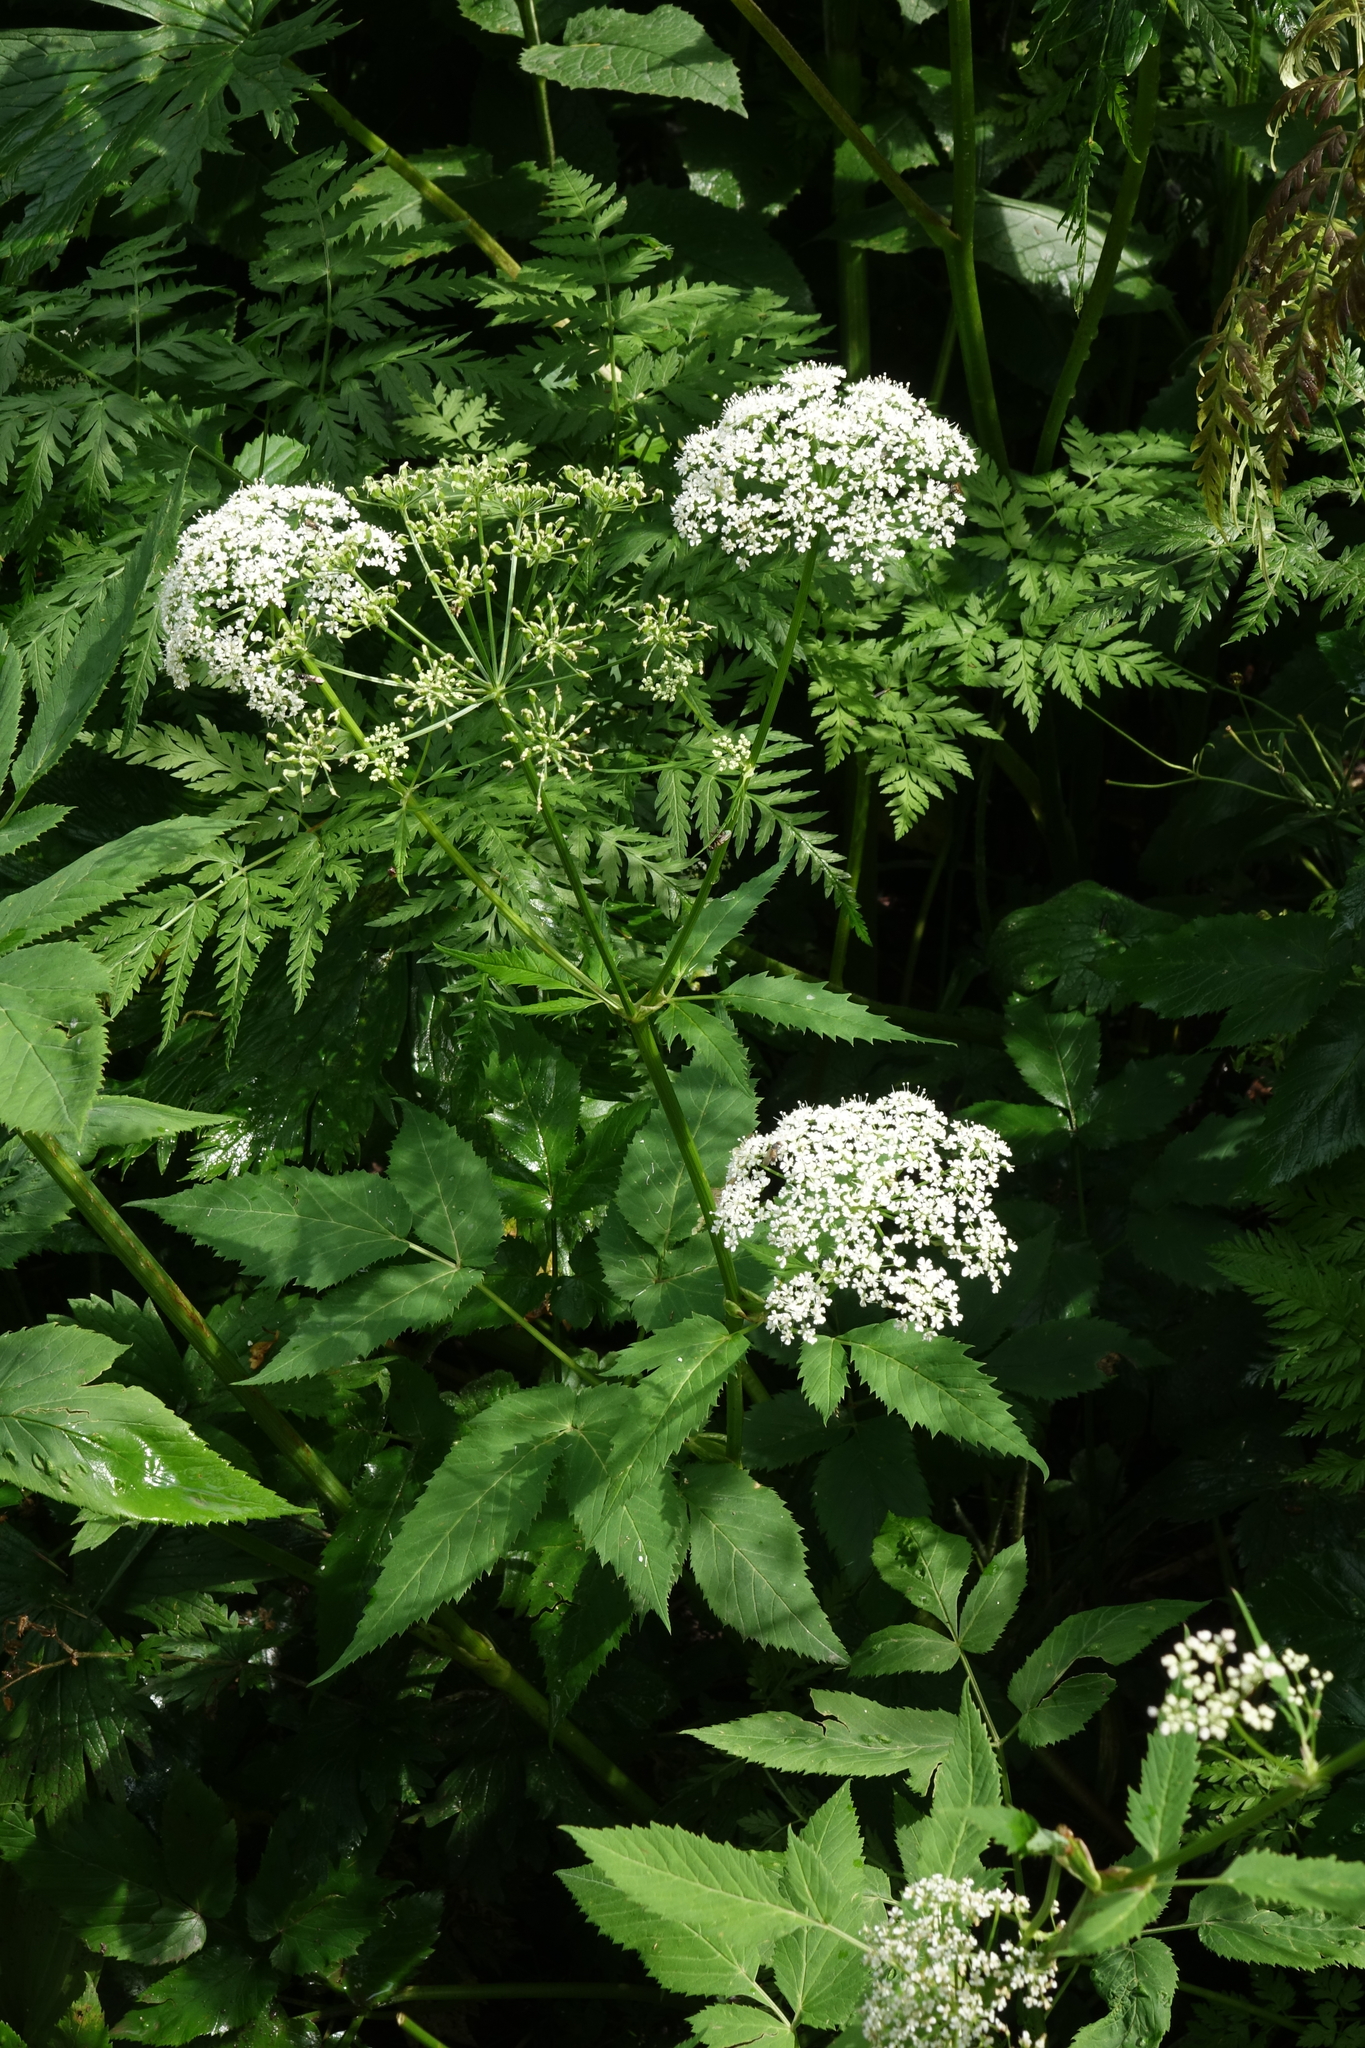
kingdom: Plantae
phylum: Tracheophyta
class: Magnoliopsida
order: Apiales
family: Apiaceae
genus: Aegopodium
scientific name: Aegopodium podagraria
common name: Ground-elder
